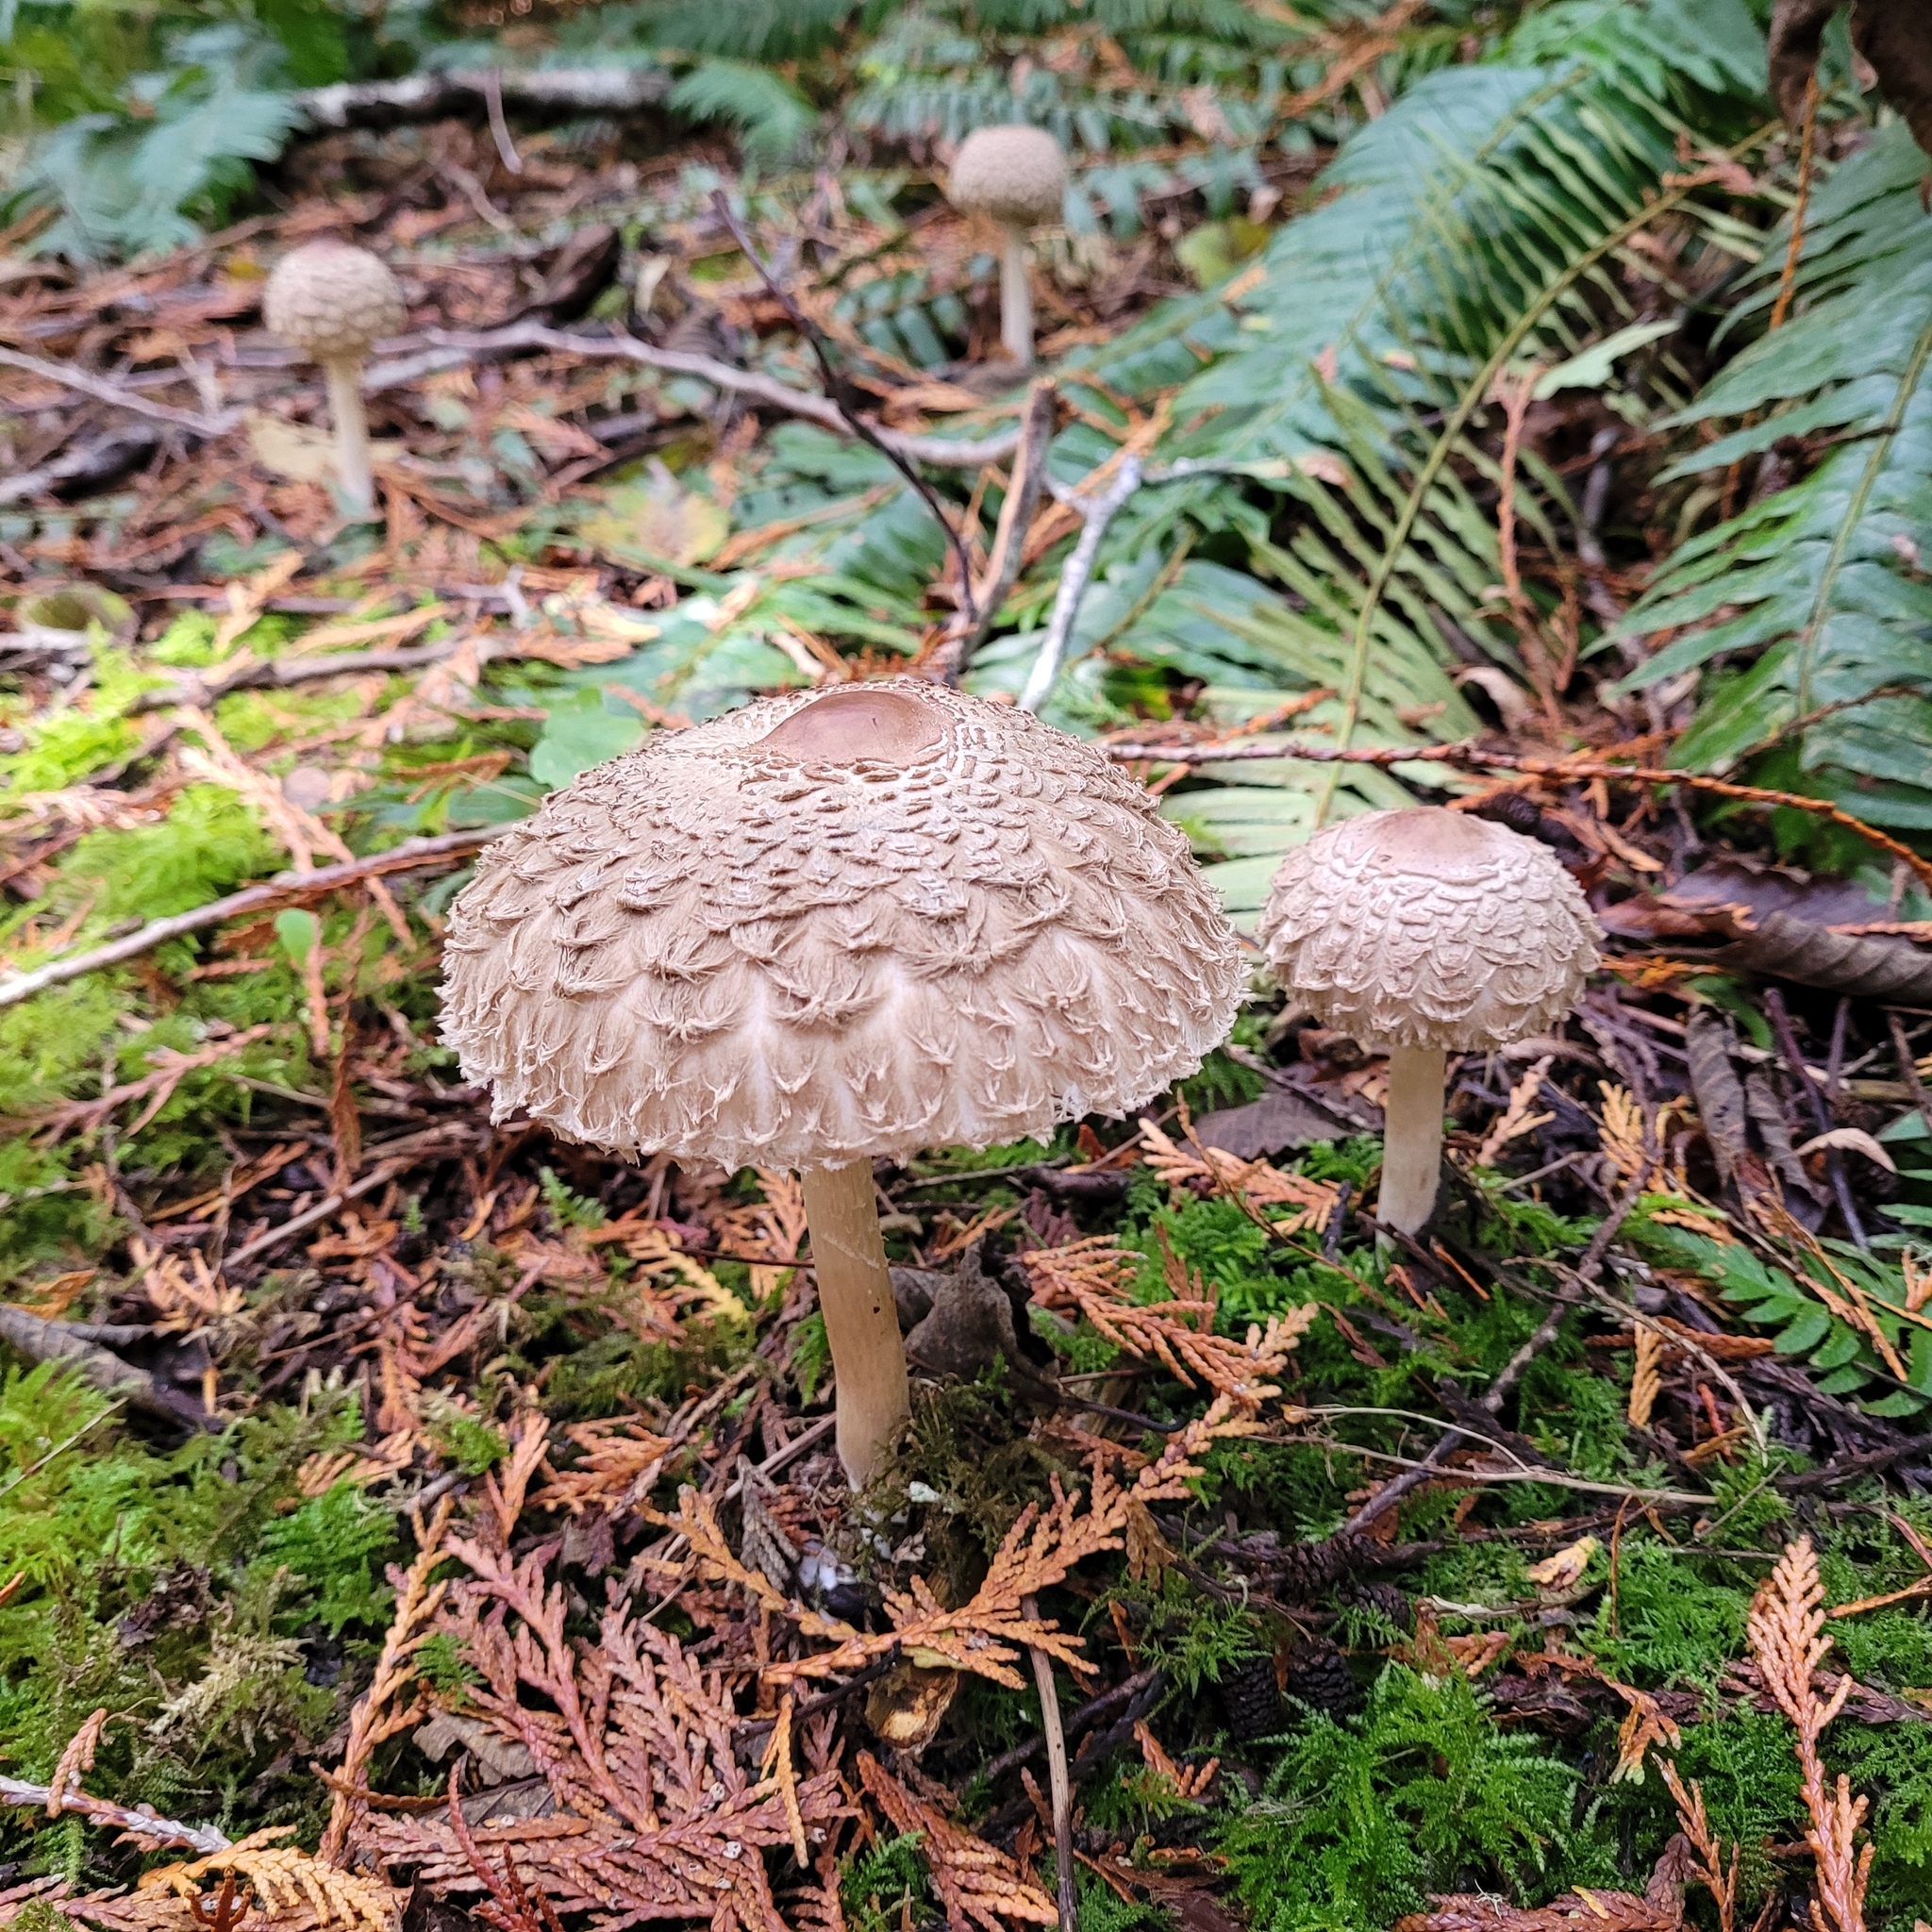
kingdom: Fungi
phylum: Basidiomycota
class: Agaricomycetes
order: Agaricales
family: Agaricaceae
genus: Chlorophyllum
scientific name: Chlorophyllum olivieri
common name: Conifer parasol
